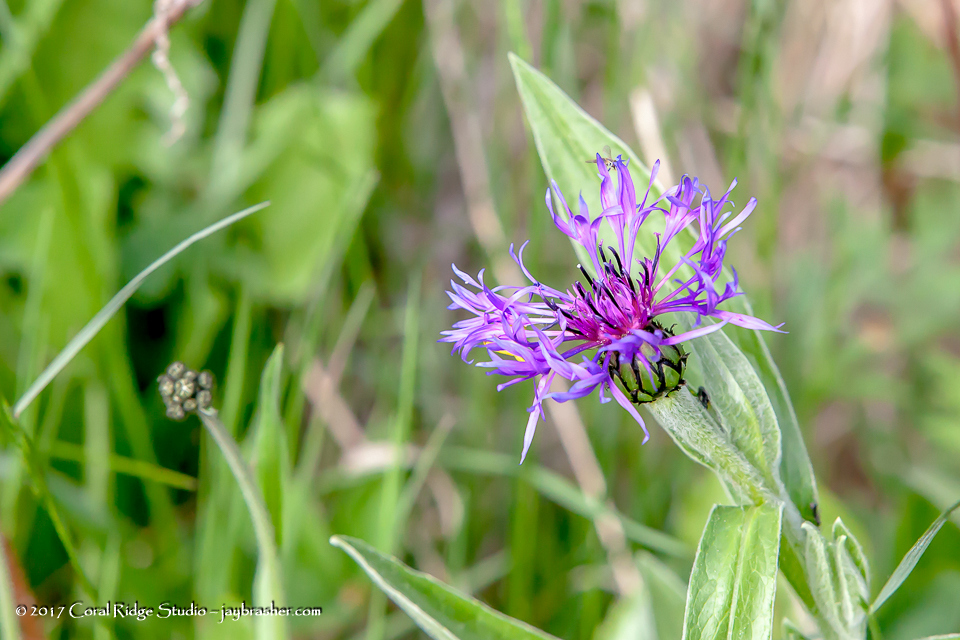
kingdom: Plantae
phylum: Tracheophyta
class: Magnoliopsida
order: Asterales
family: Asteraceae
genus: Centaurea
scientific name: Centaurea montana
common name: Perennial cornflower
